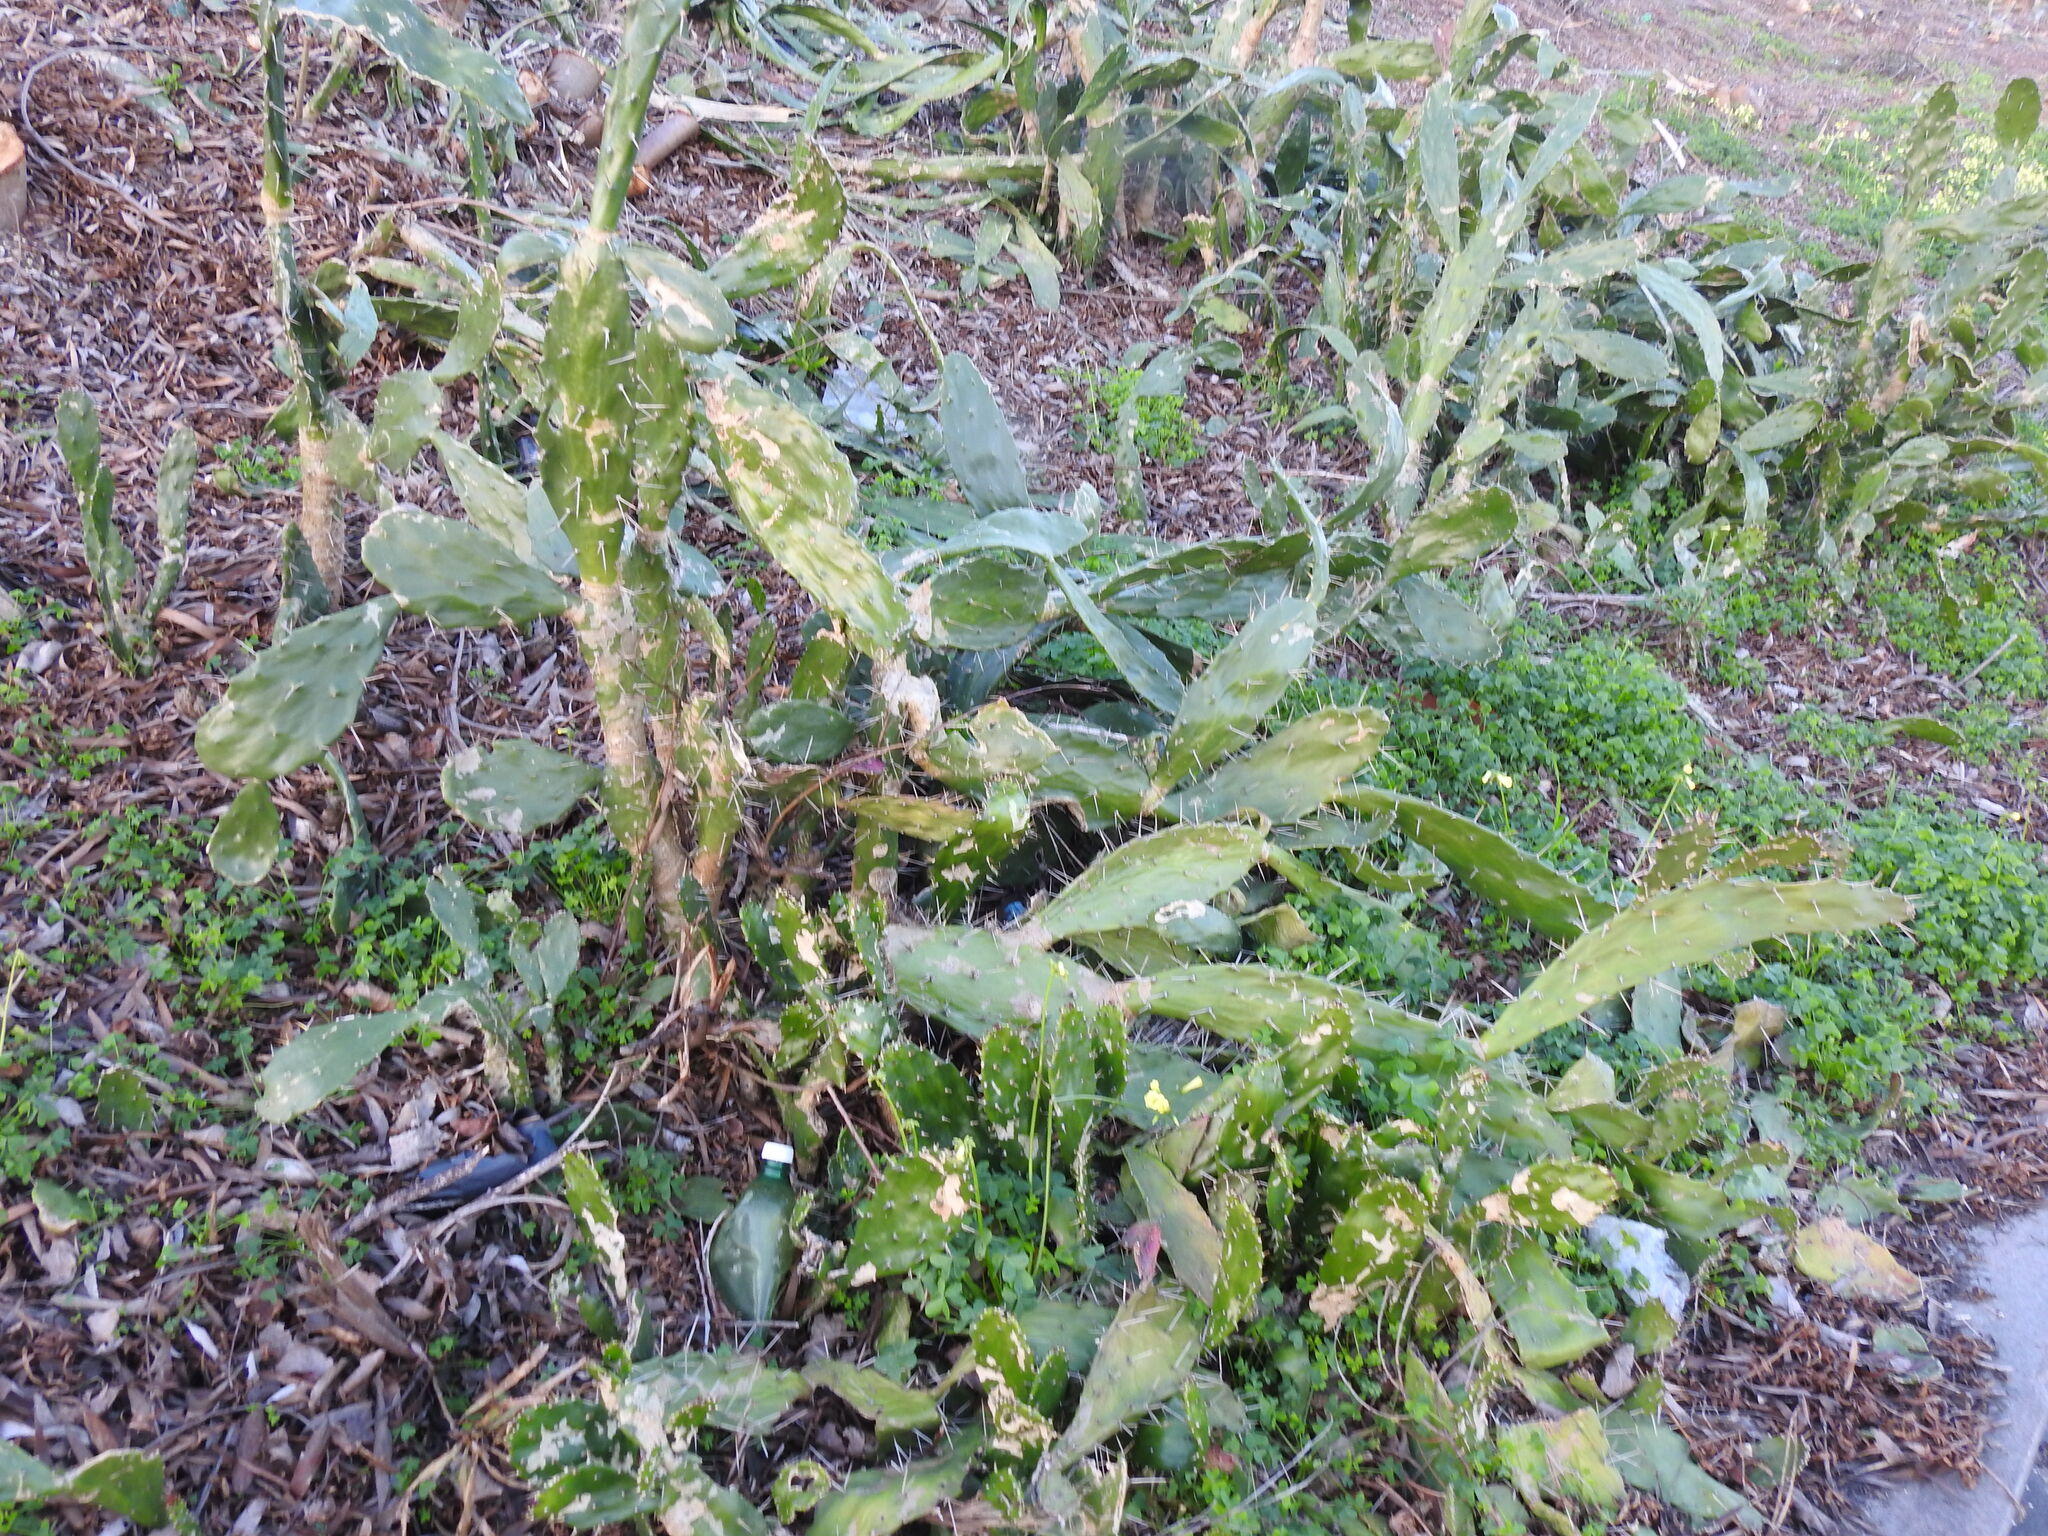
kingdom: Plantae
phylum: Tracheophyta
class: Magnoliopsida
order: Caryophyllales
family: Cactaceae
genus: Opuntia
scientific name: Opuntia monacantha
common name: Common pricklypear
